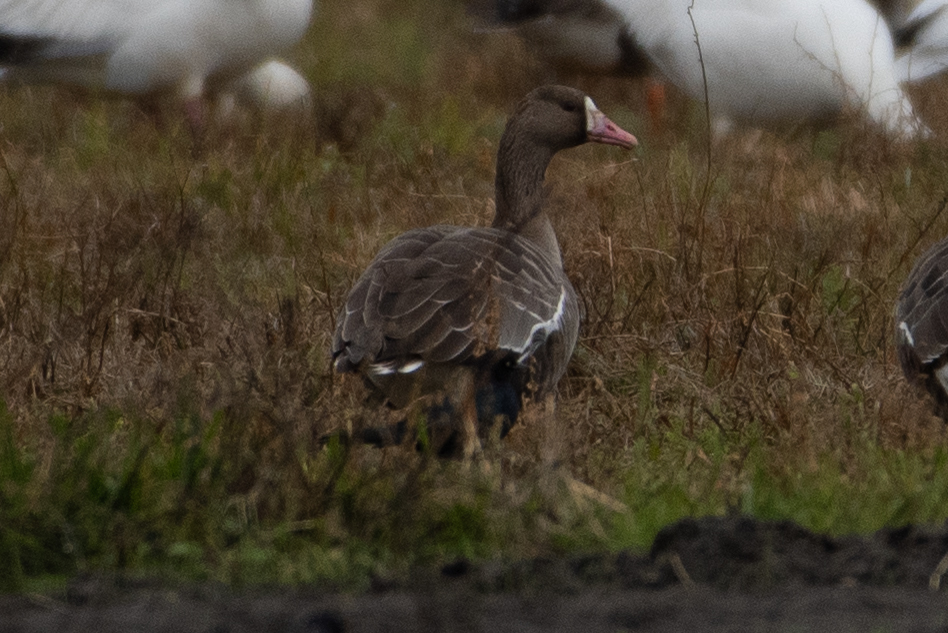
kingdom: Animalia
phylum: Chordata
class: Aves
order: Anseriformes
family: Anatidae
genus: Anser
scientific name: Anser albifrons
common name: Greater white-fronted goose
